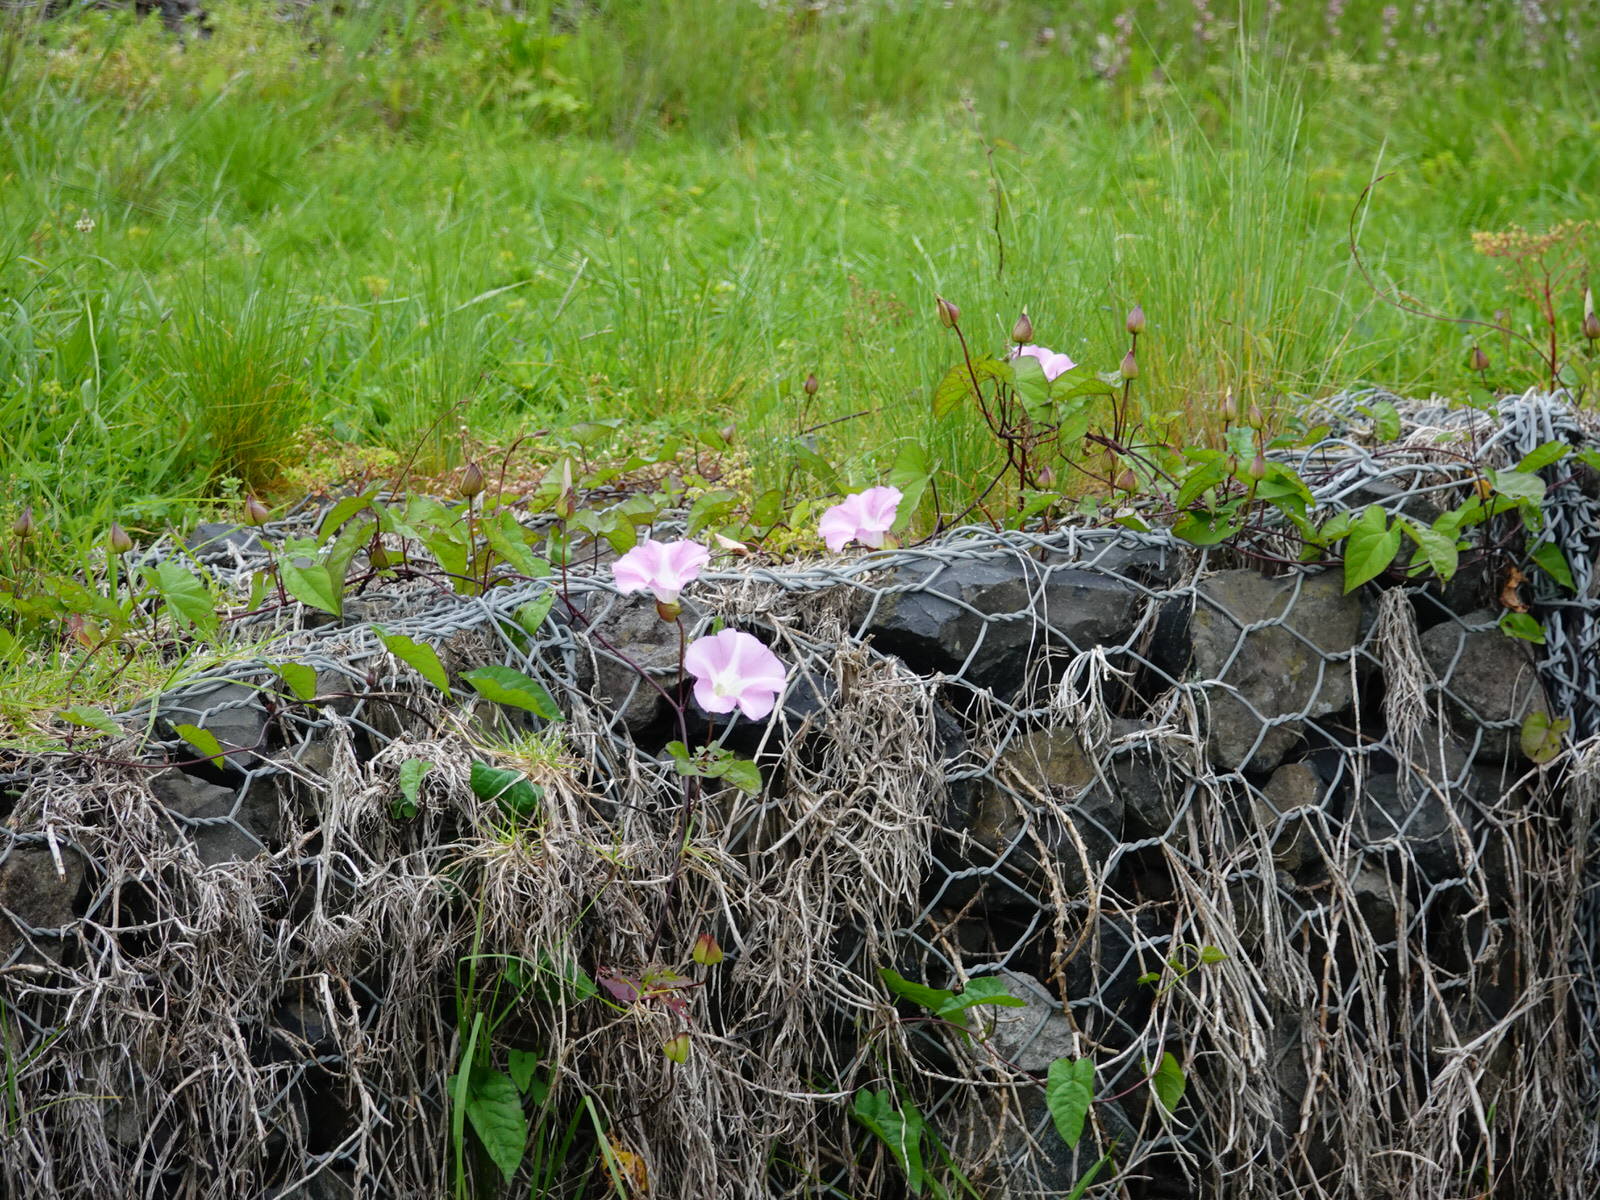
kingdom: Plantae
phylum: Tracheophyta
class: Magnoliopsida
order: Solanales
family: Convolvulaceae
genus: Calystegia
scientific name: Calystegia sepium
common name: Hedge bindweed
